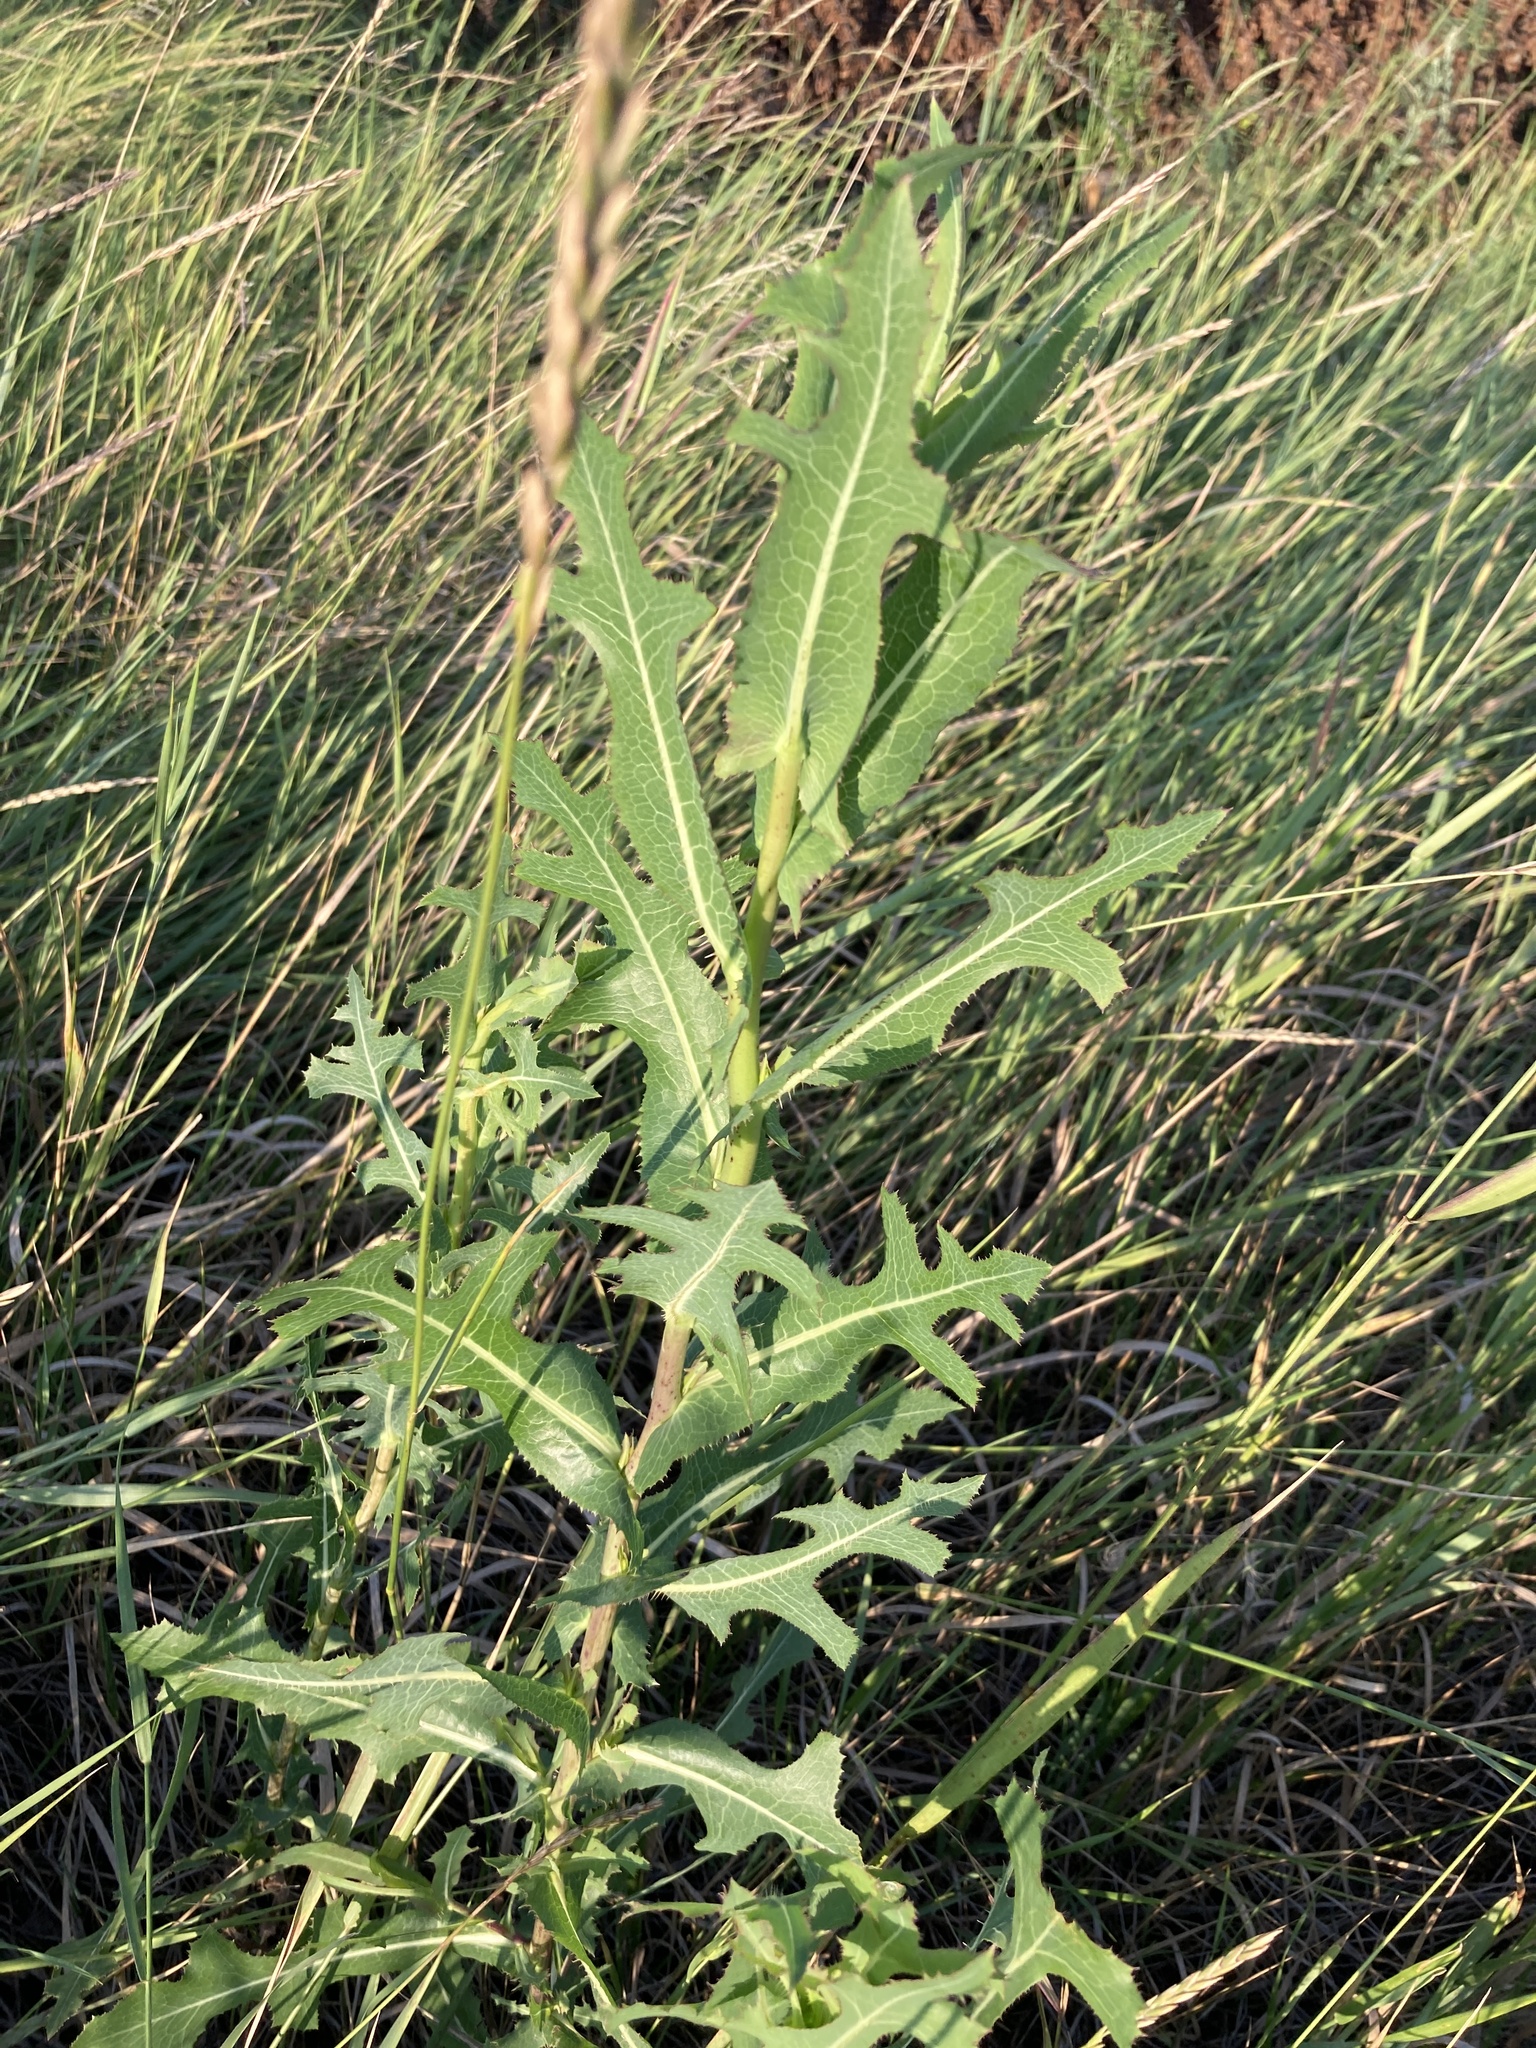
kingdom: Plantae
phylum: Tracheophyta
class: Magnoliopsida
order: Asterales
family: Asteraceae
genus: Lactuca
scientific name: Lactuca serriola
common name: Prickly lettuce
